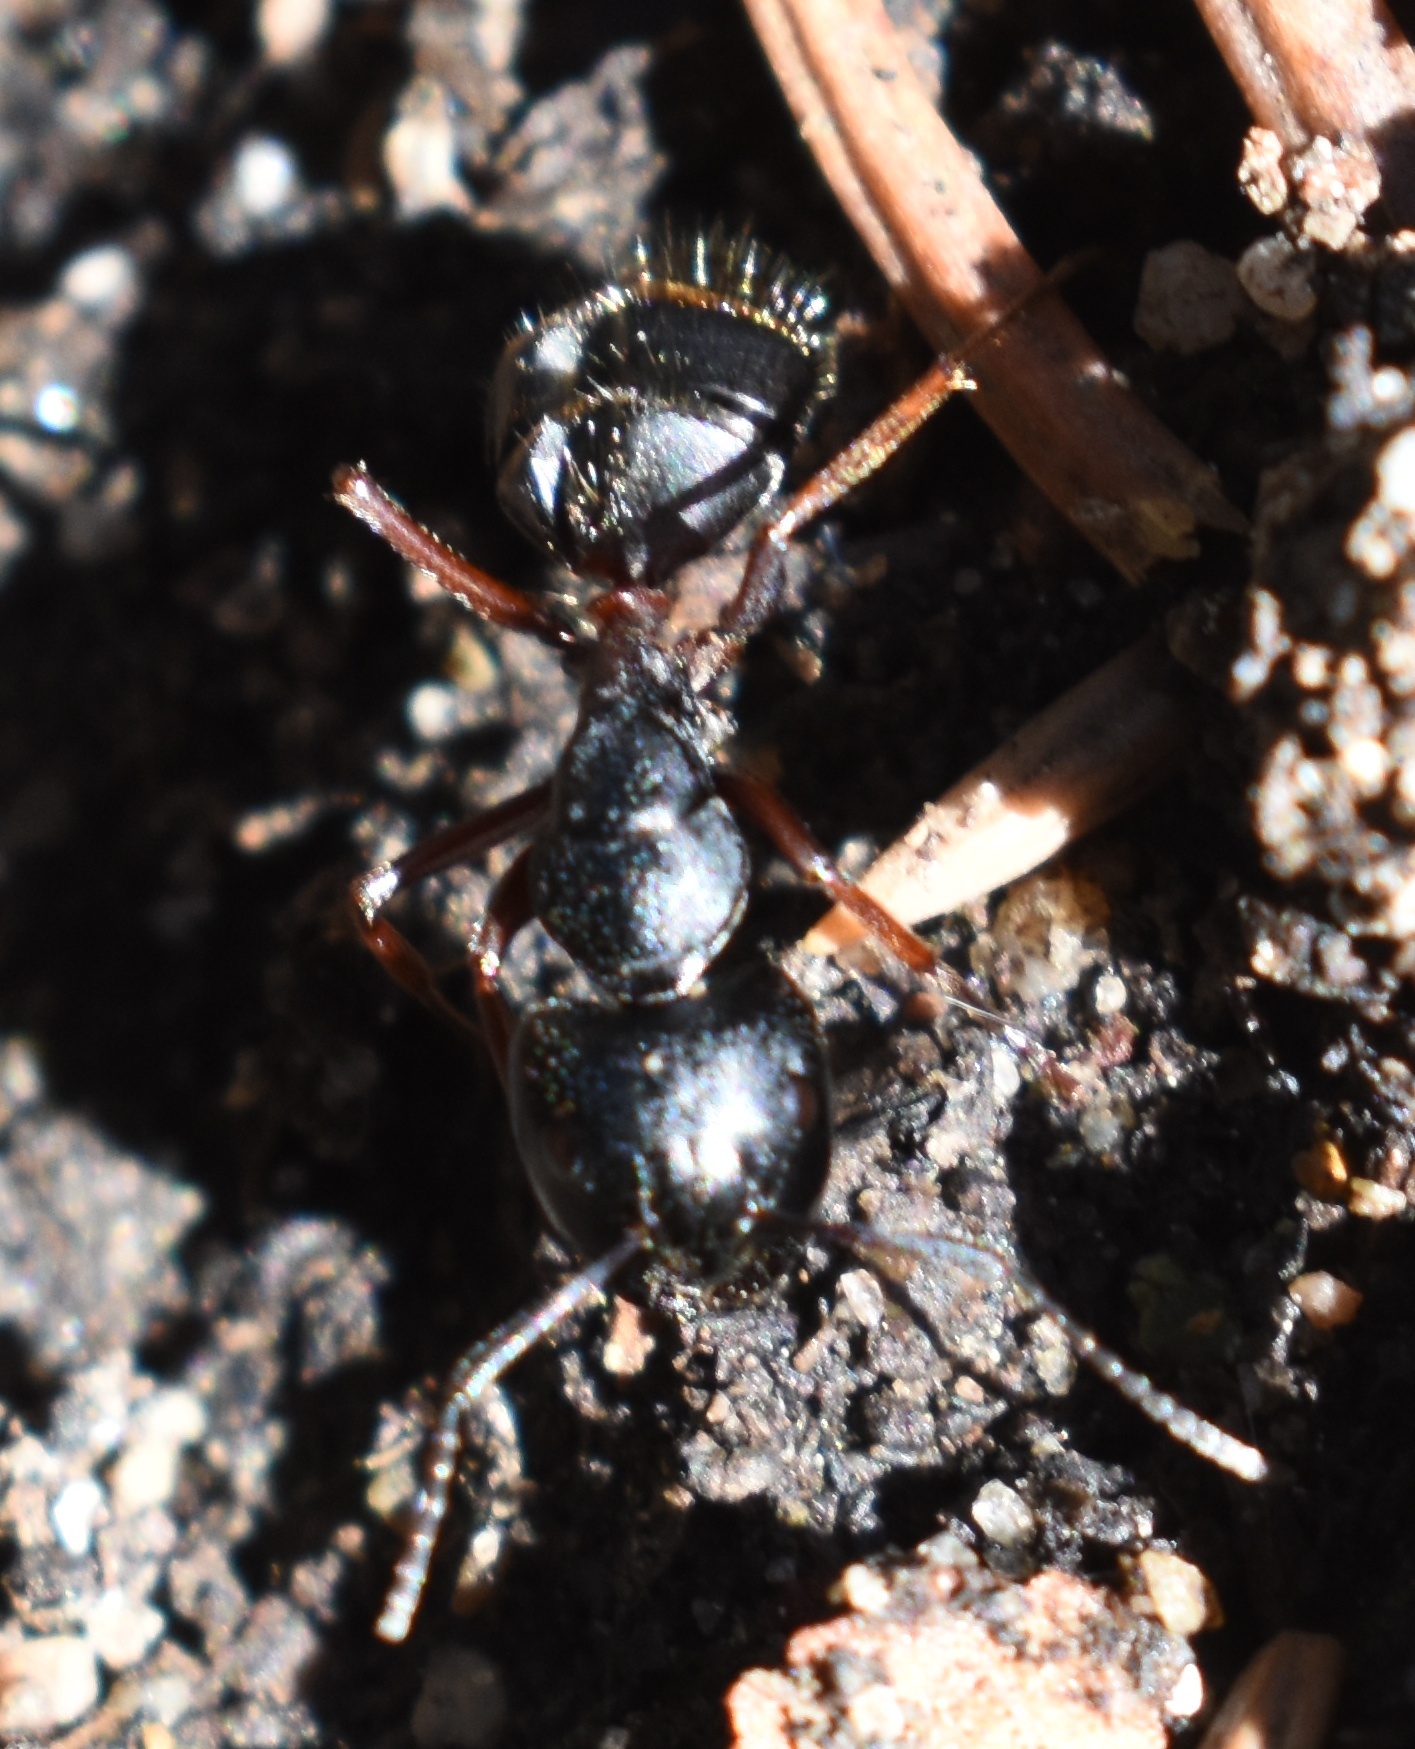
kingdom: Animalia
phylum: Arthropoda
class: Insecta
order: Hymenoptera
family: Formicidae
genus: Camponotus
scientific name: Camponotus herculeanus
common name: Hercules ant
